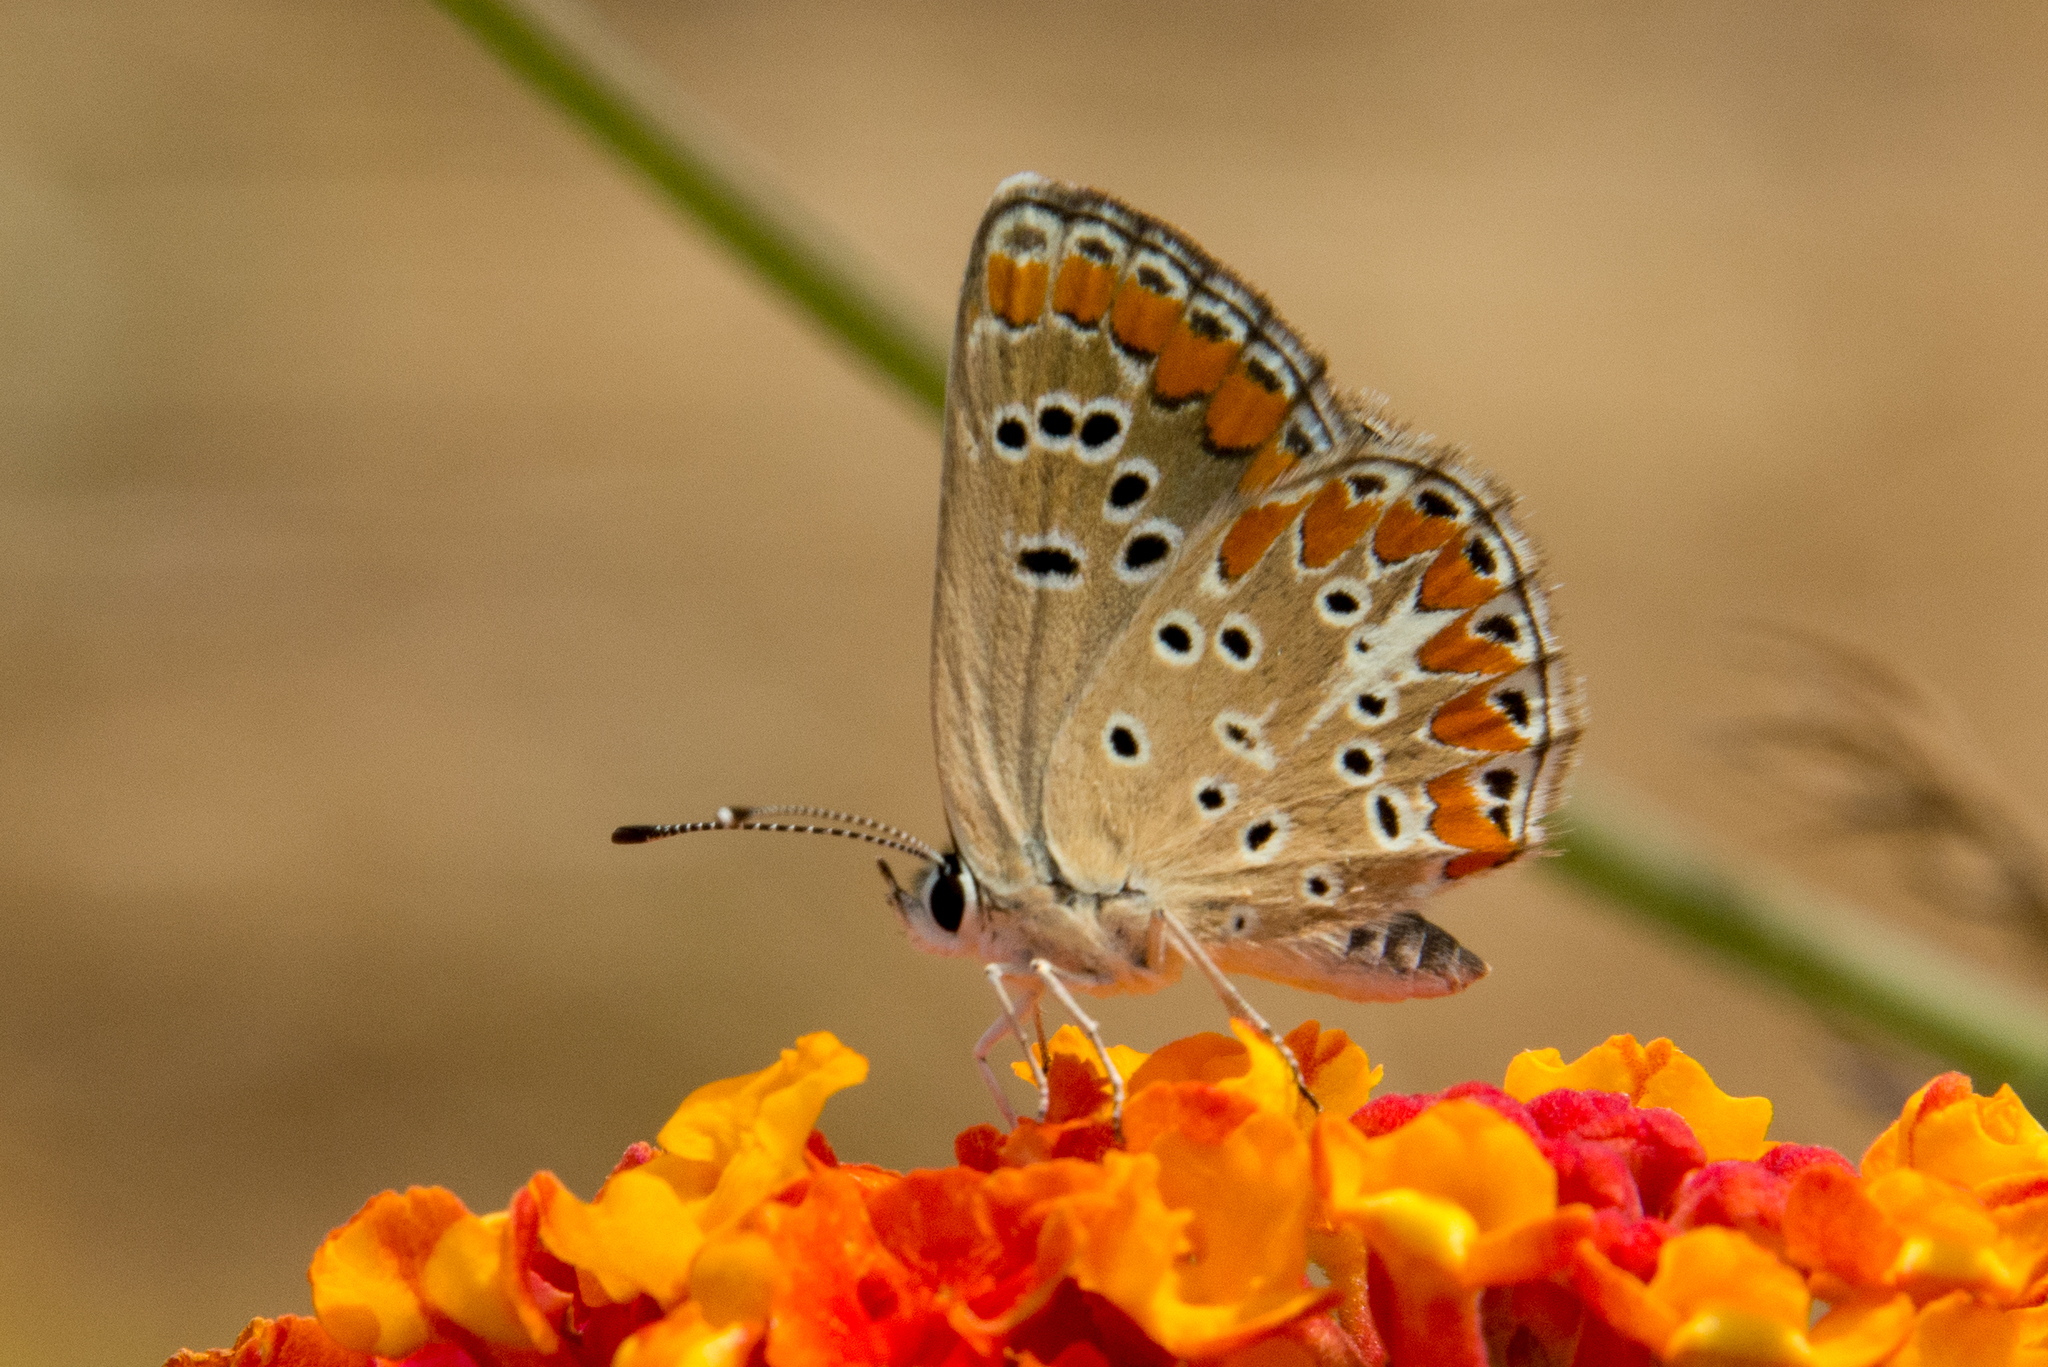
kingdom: Animalia
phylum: Arthropoda
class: Insecta
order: Lepidoptera
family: Lycaenidae
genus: Aricia
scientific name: Aricia agestis
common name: Brown argus
